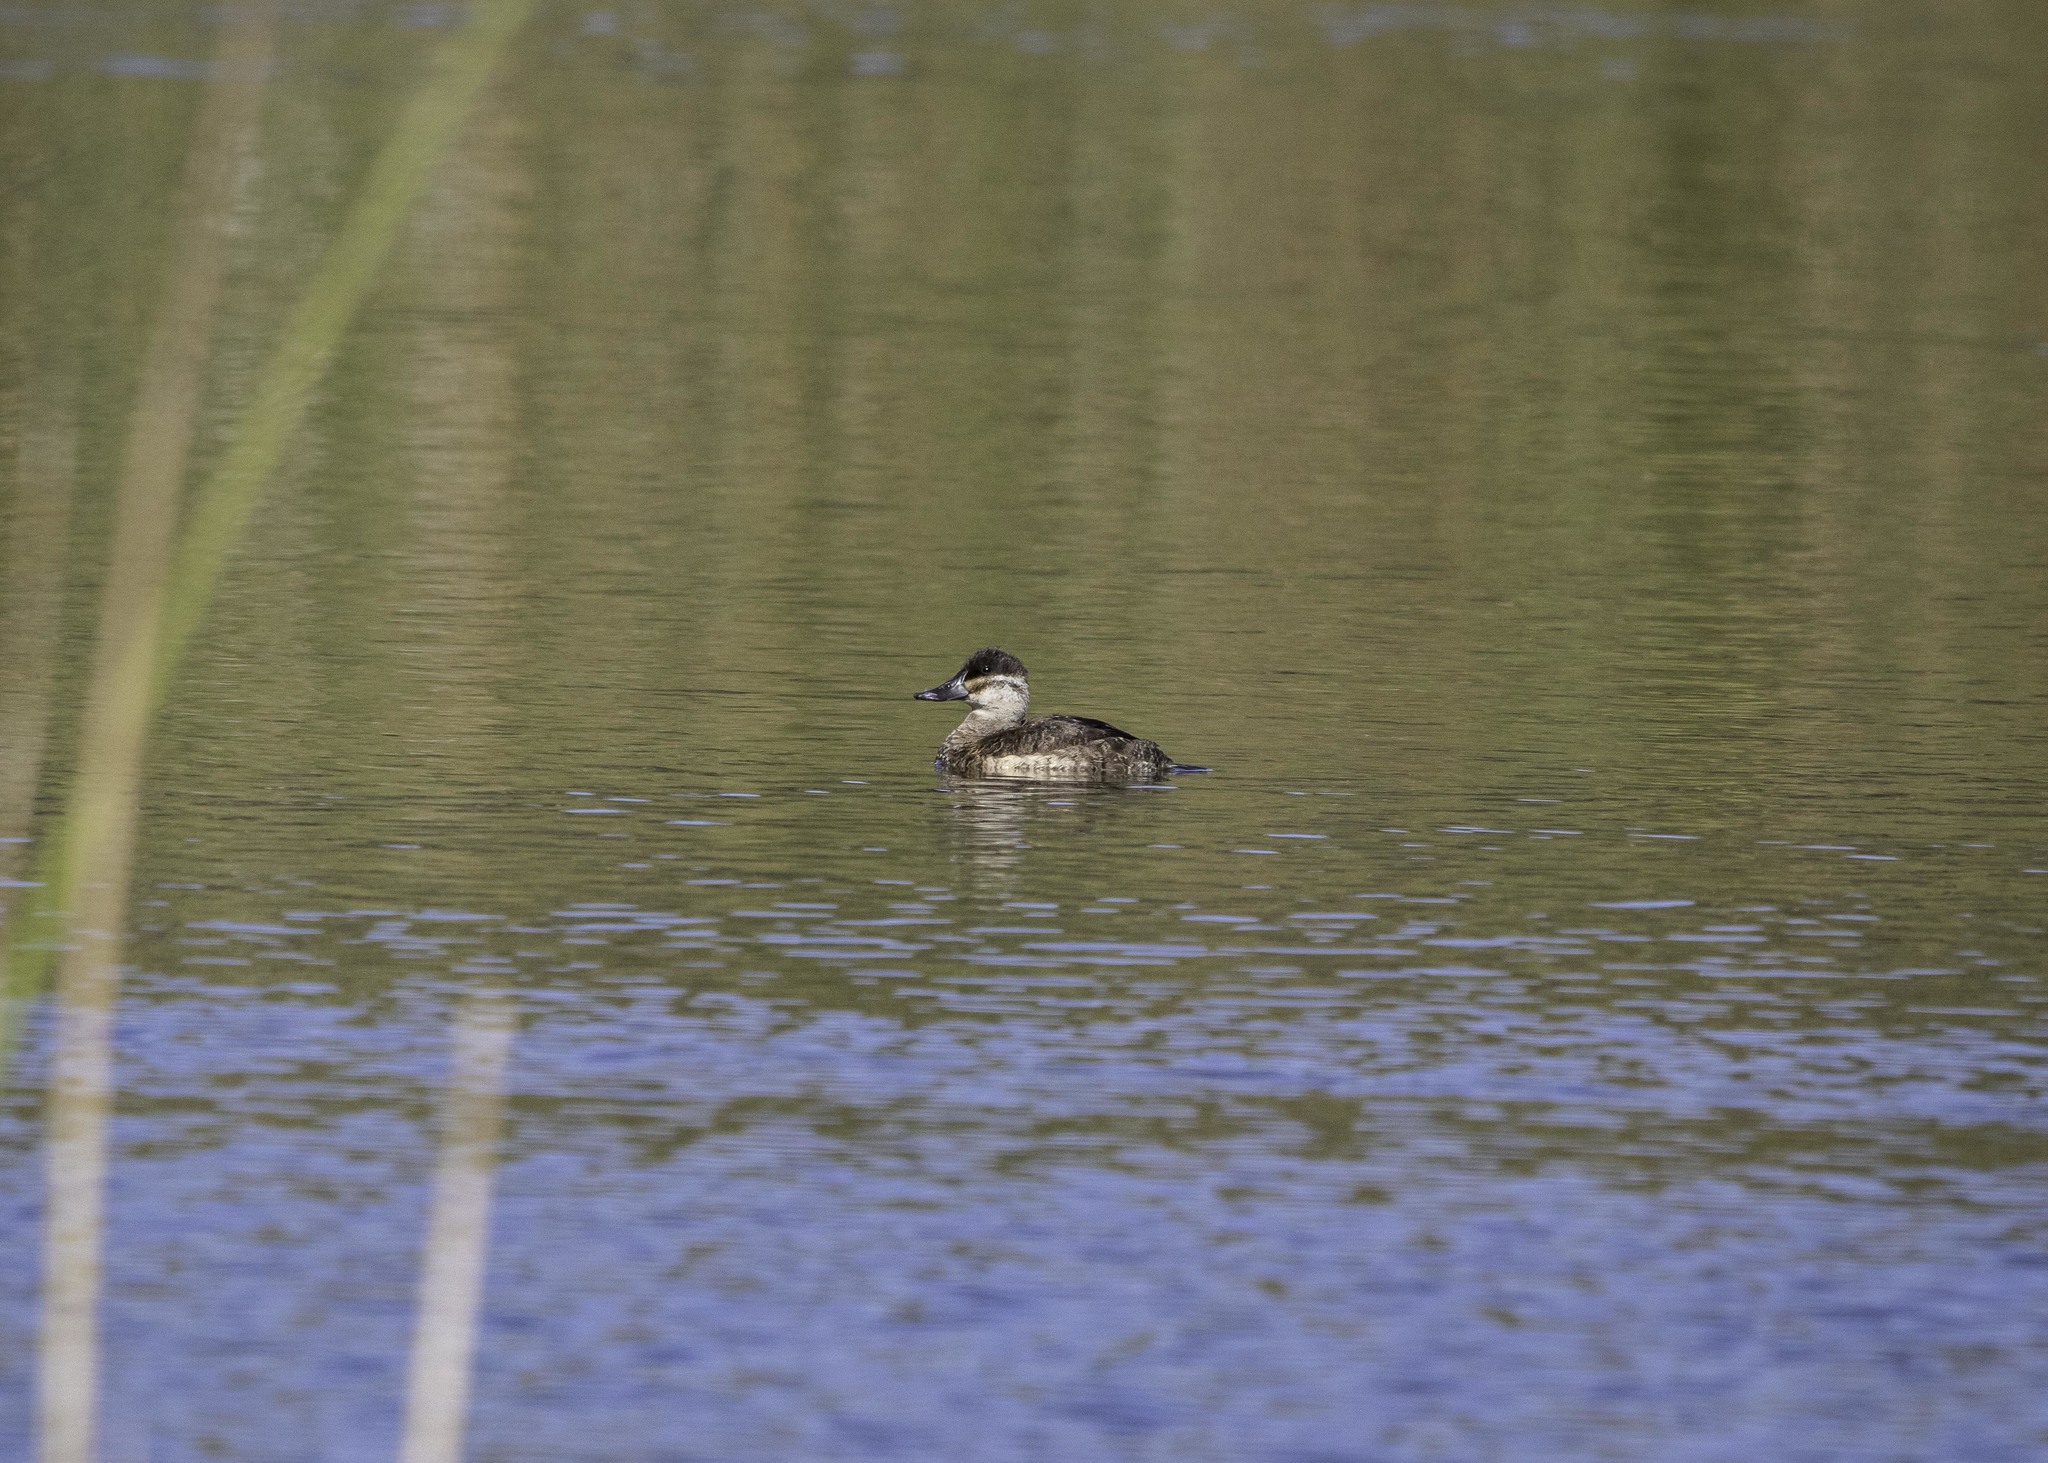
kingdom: Animalia
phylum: Chordata
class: Aves
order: Anseriformes
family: Anatidae
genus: Oxyura
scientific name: Oxyura jamaicensis
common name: Ruddy duck
